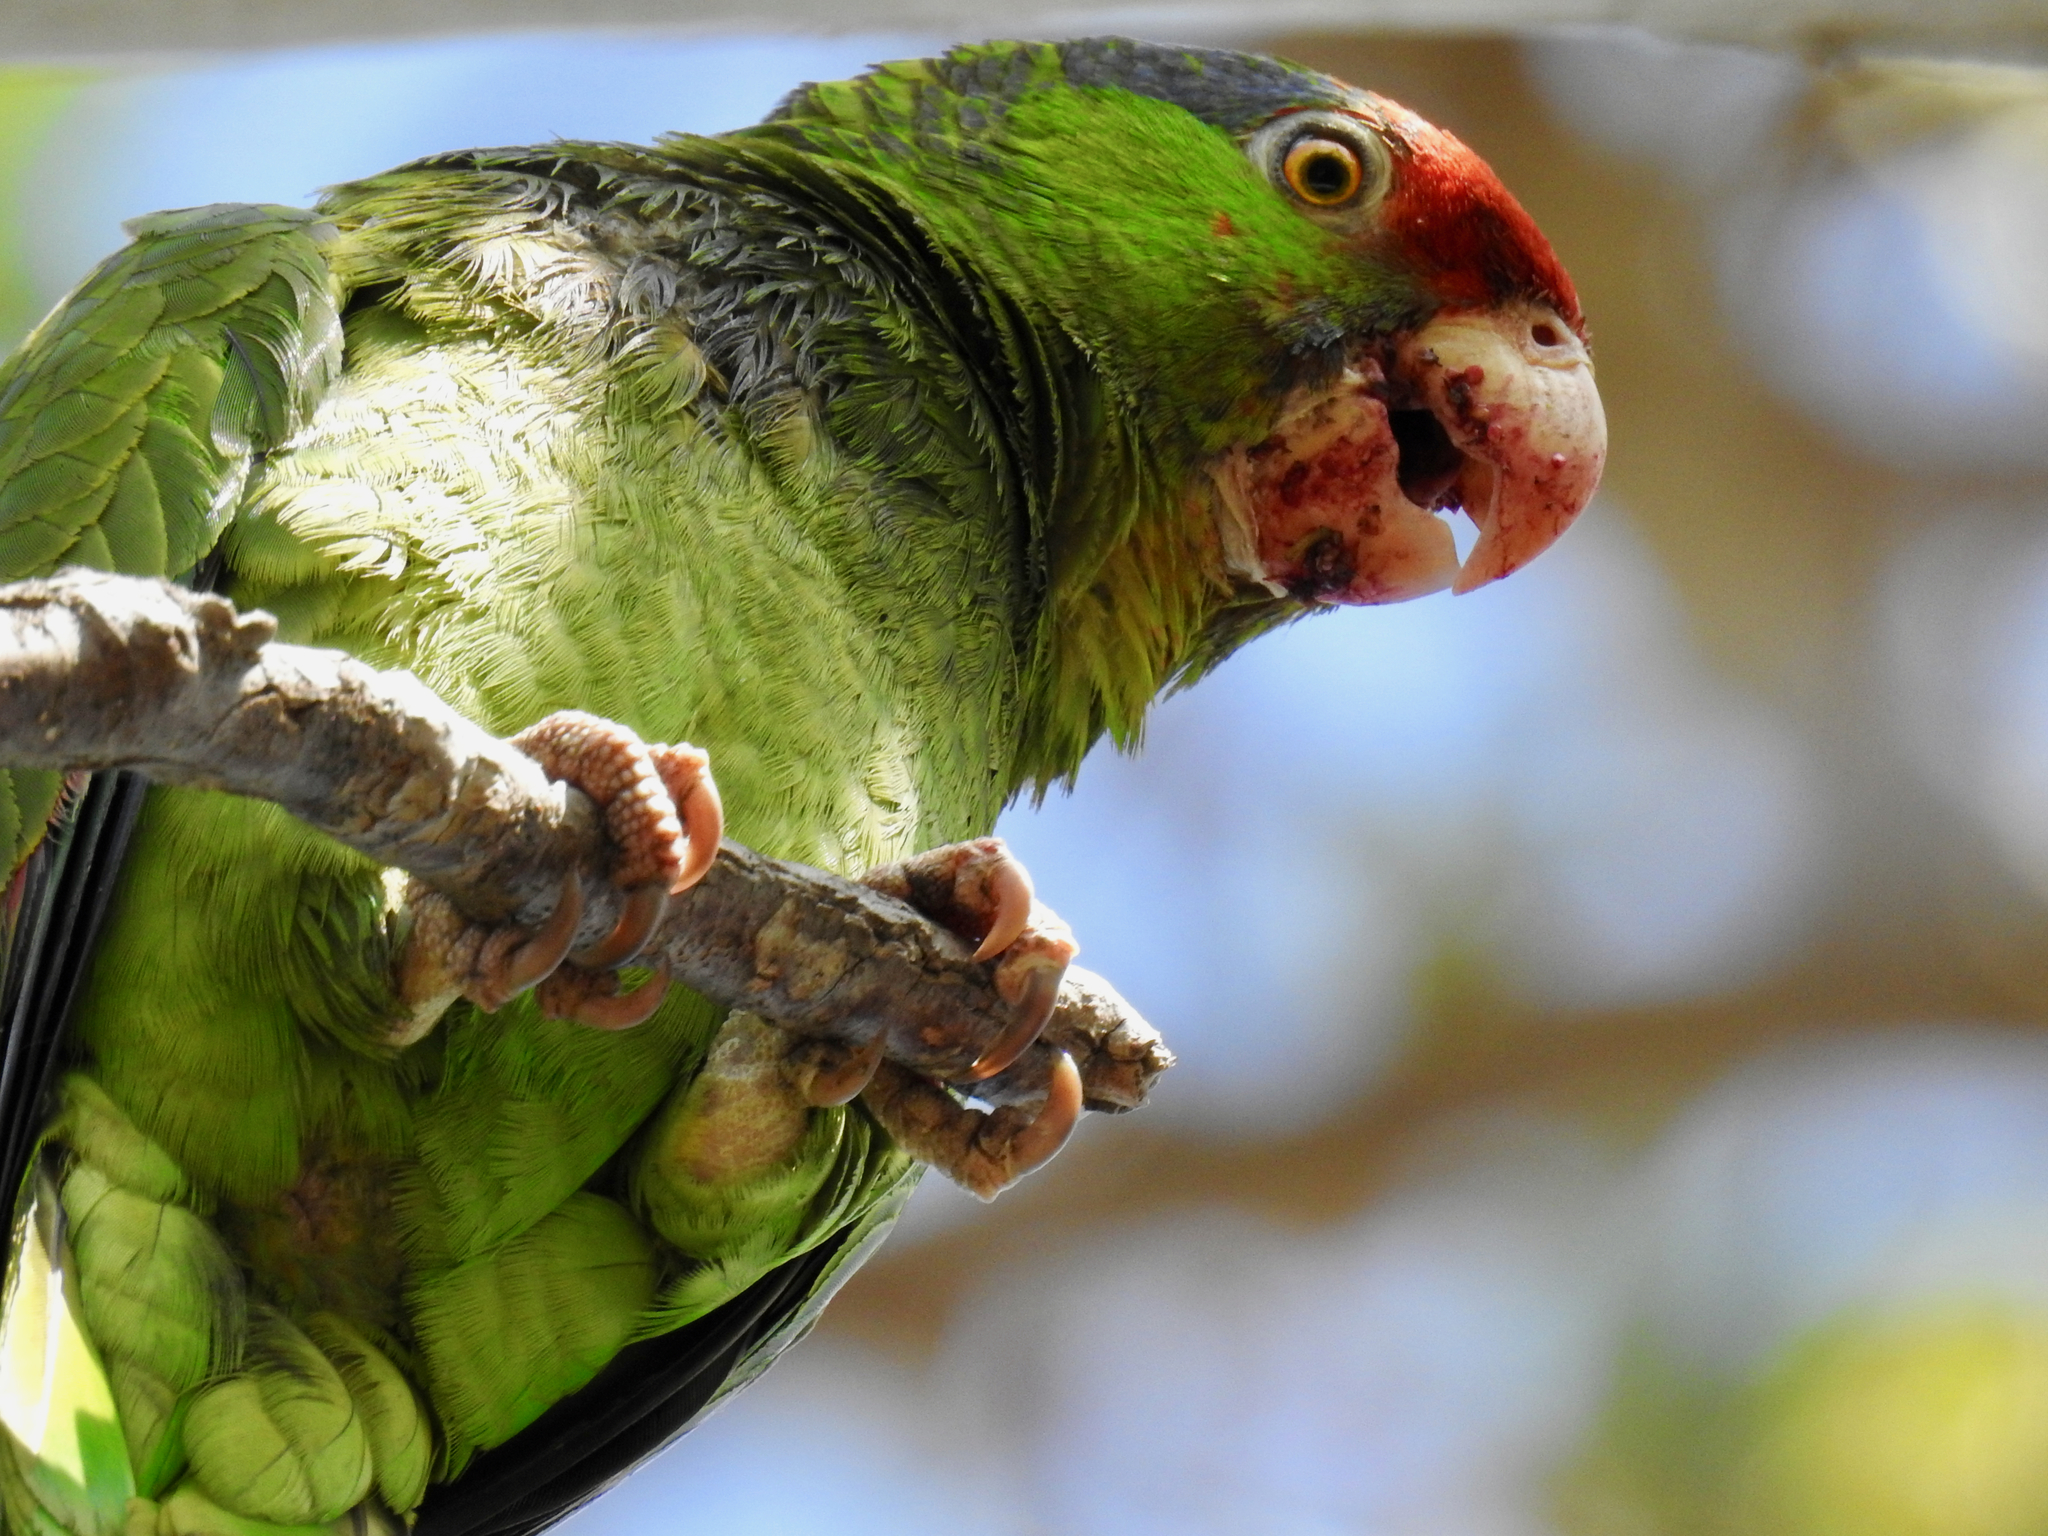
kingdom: Animalia
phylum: Chordata
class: Aves
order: Psittaciformes
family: Psittacidae
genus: Amazona
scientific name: Amazona viridigenalis
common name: Red-crowned amazon
